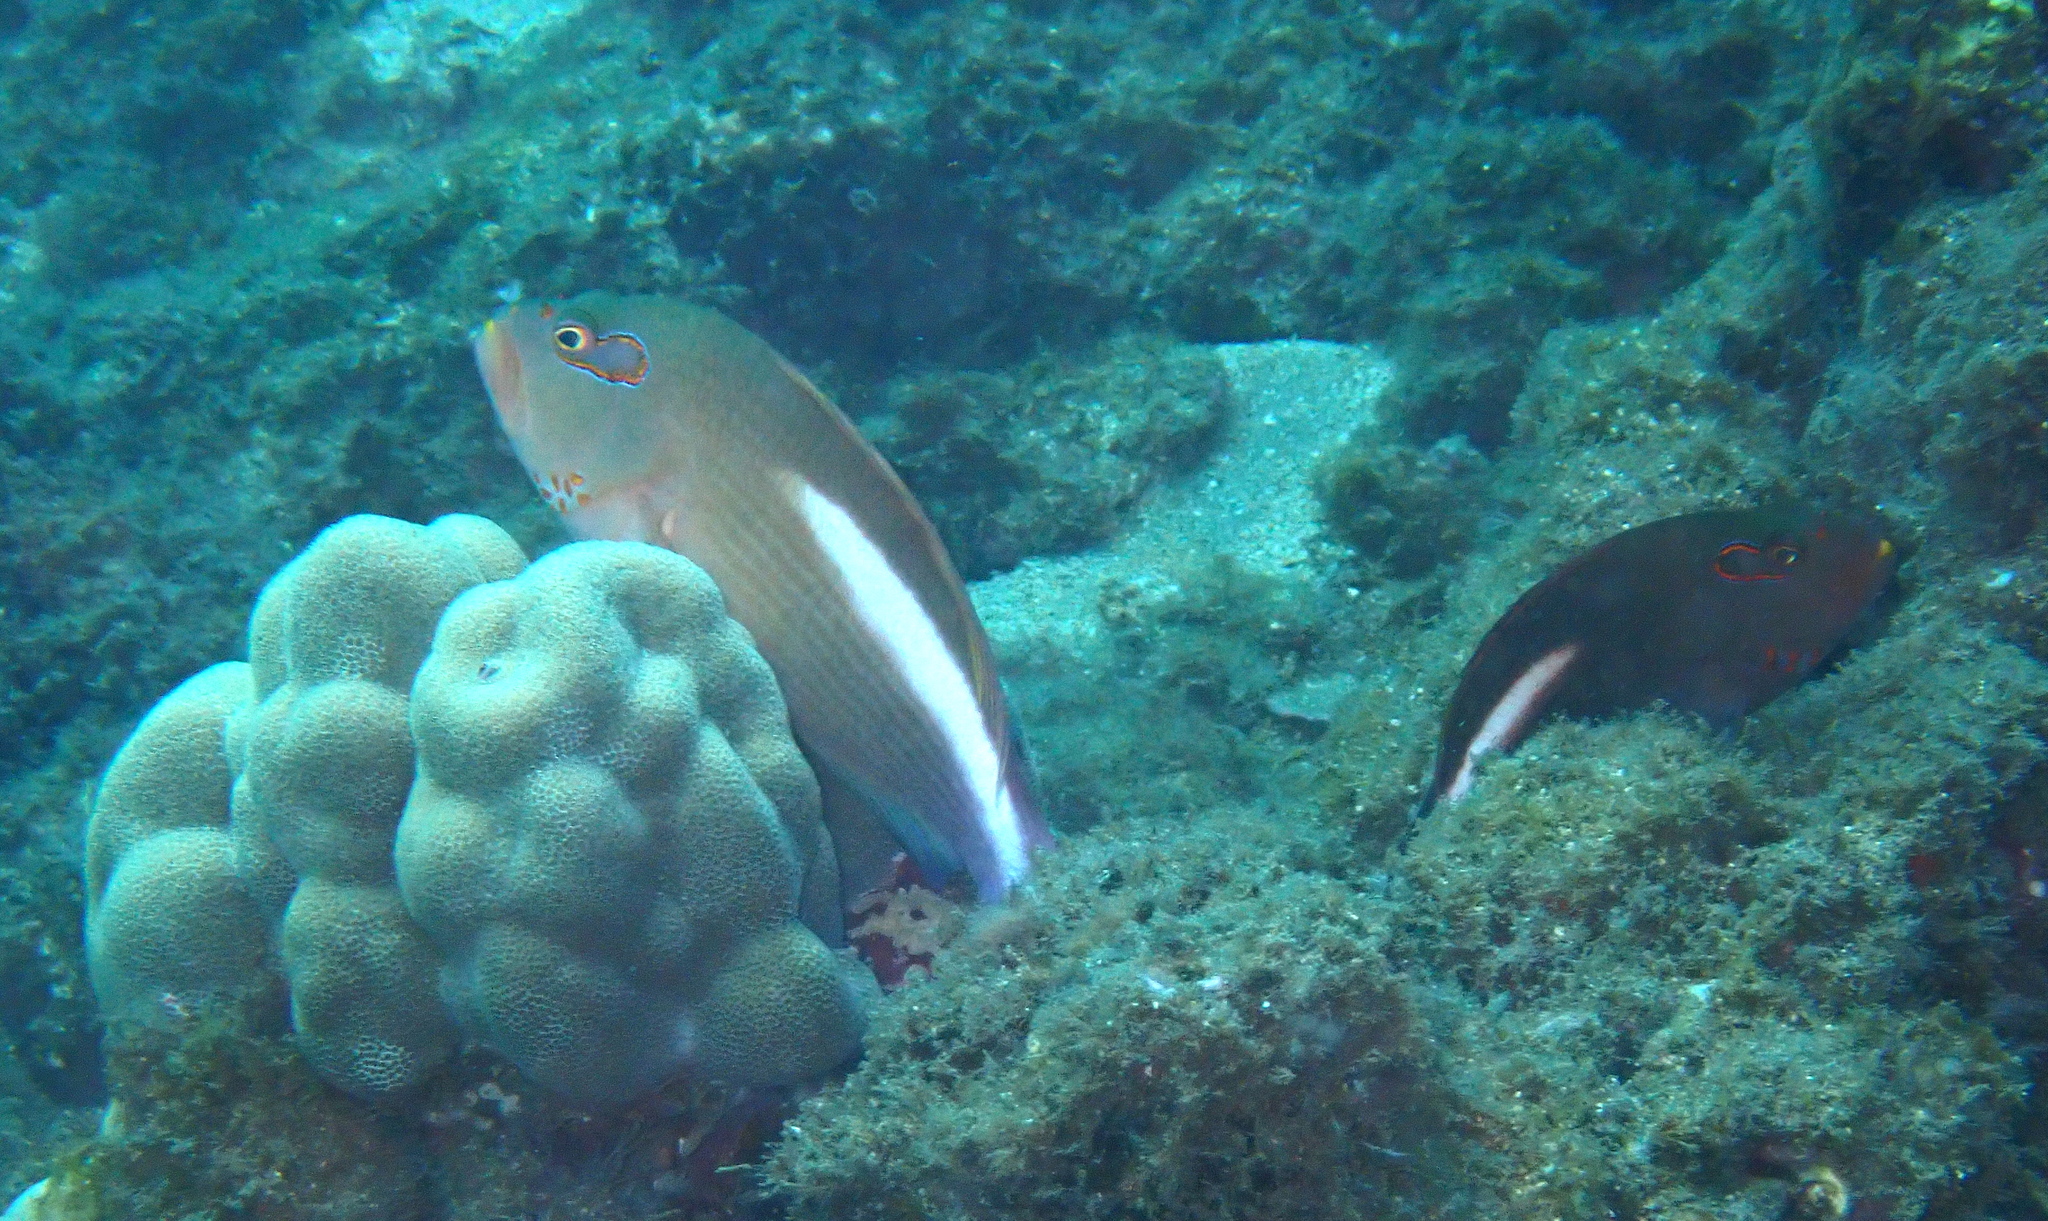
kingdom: Animalia
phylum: Chordata
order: Perciformes
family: Cirrhitidae
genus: Paracirrhites
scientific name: Paracirrhites arcatus
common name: Arc-eye hawkfish
